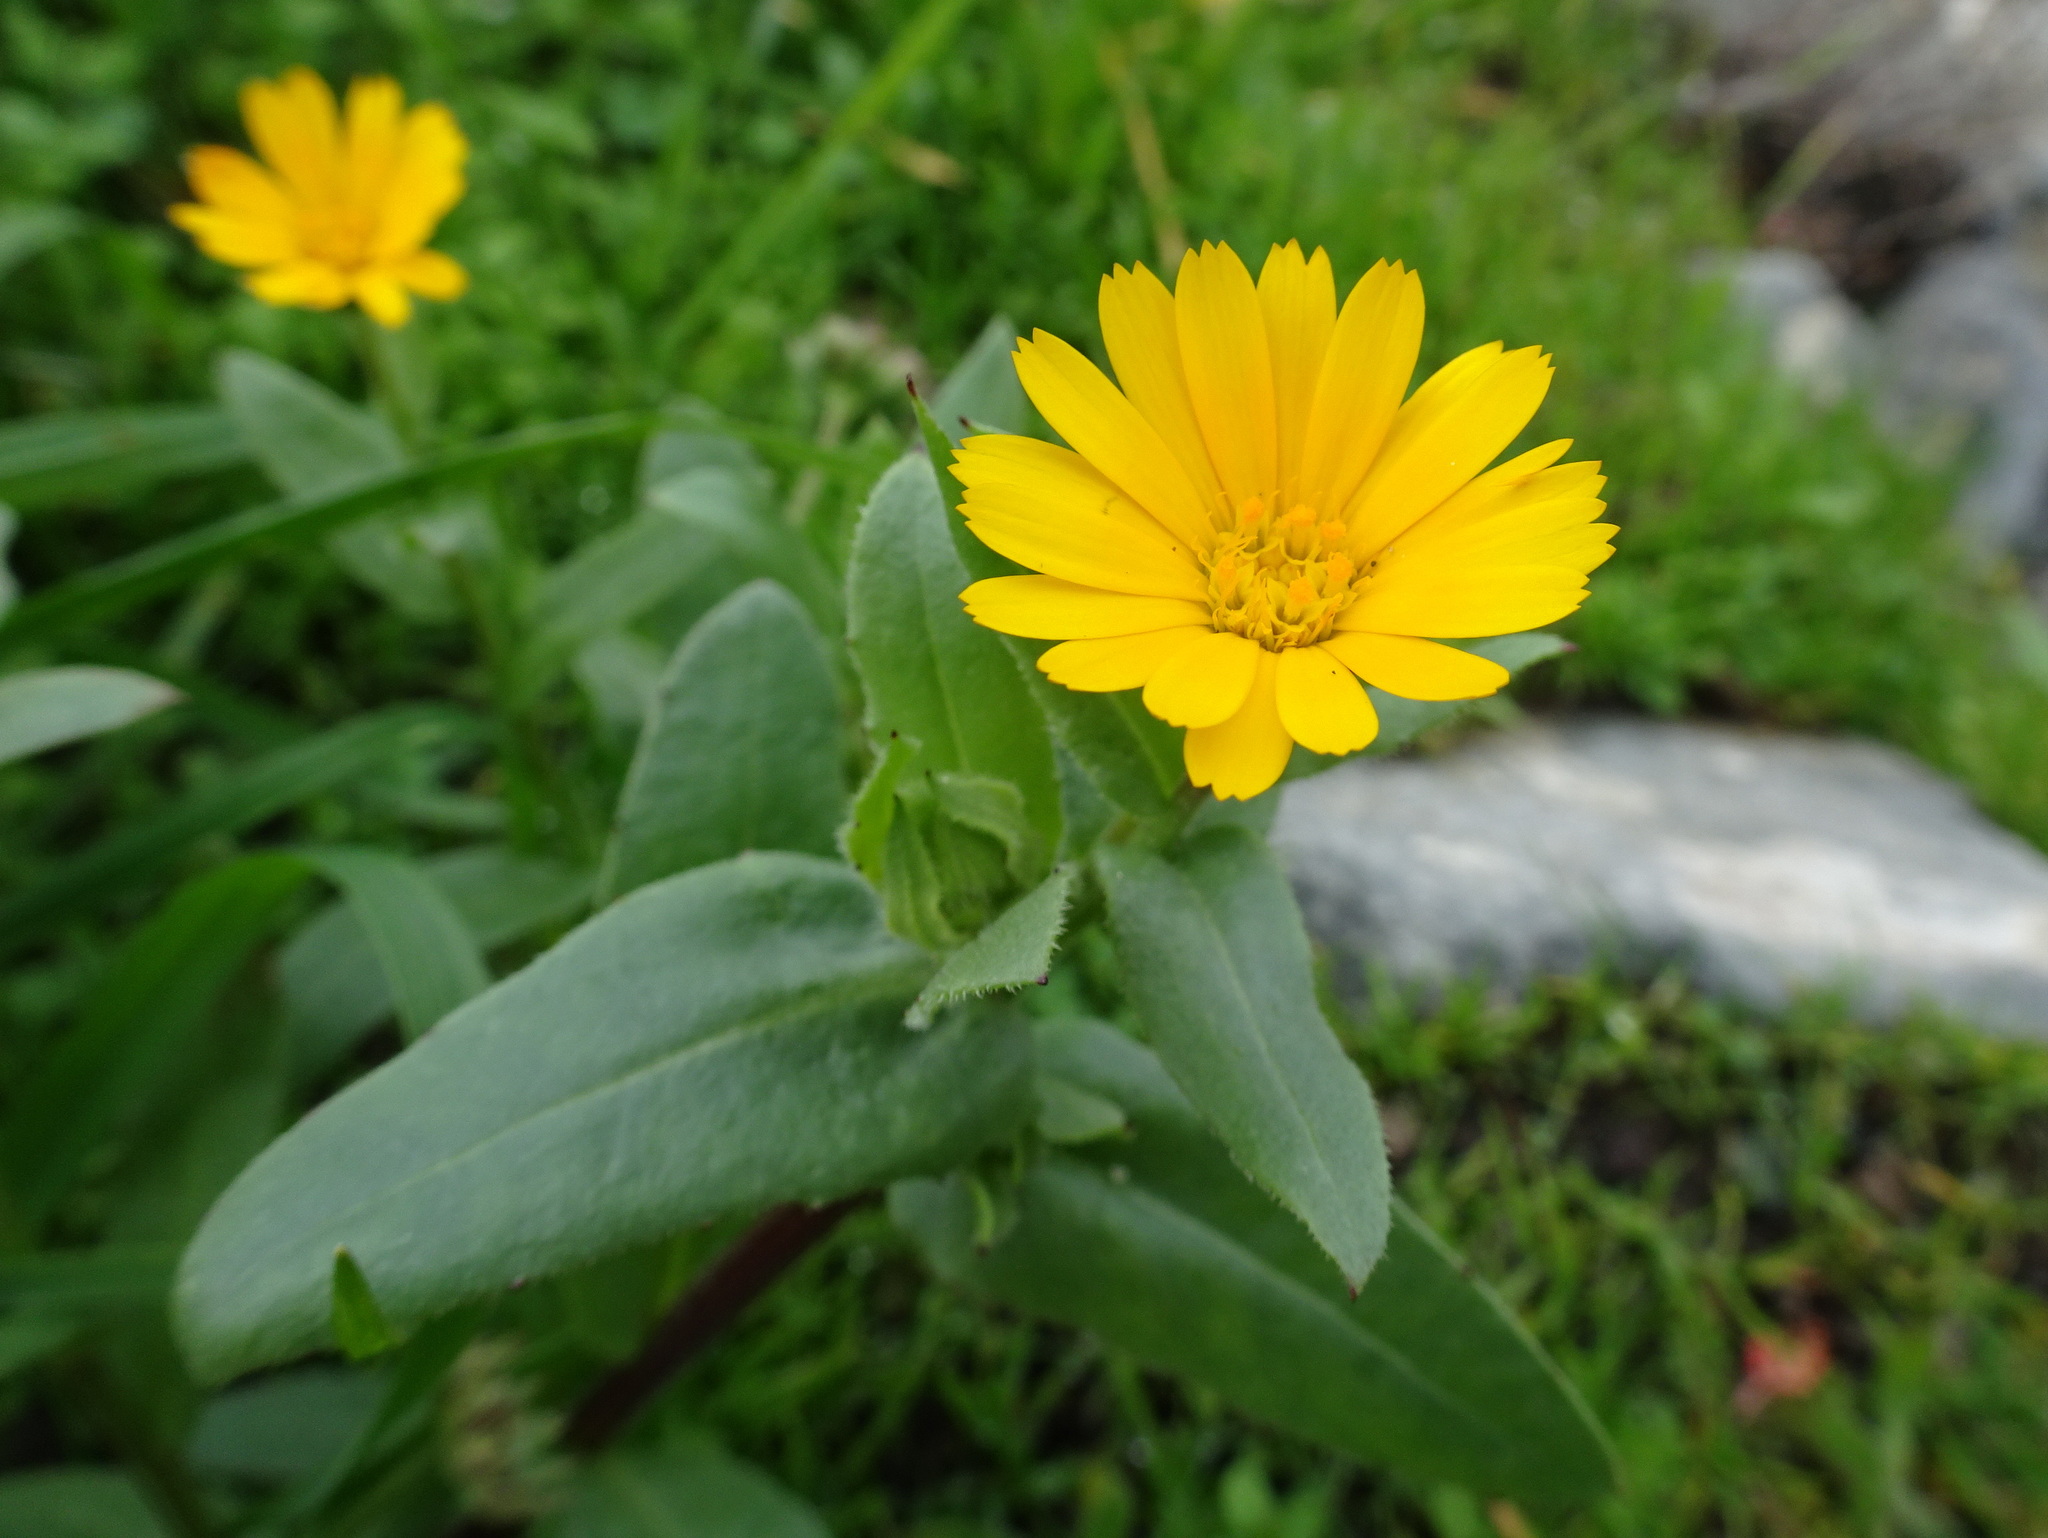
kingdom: Plantae
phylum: Tracheophyta
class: Magnoliopsida
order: Asterales
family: Asteraceae
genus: Calendula
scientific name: Calendula arvensis
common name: Field marigold
